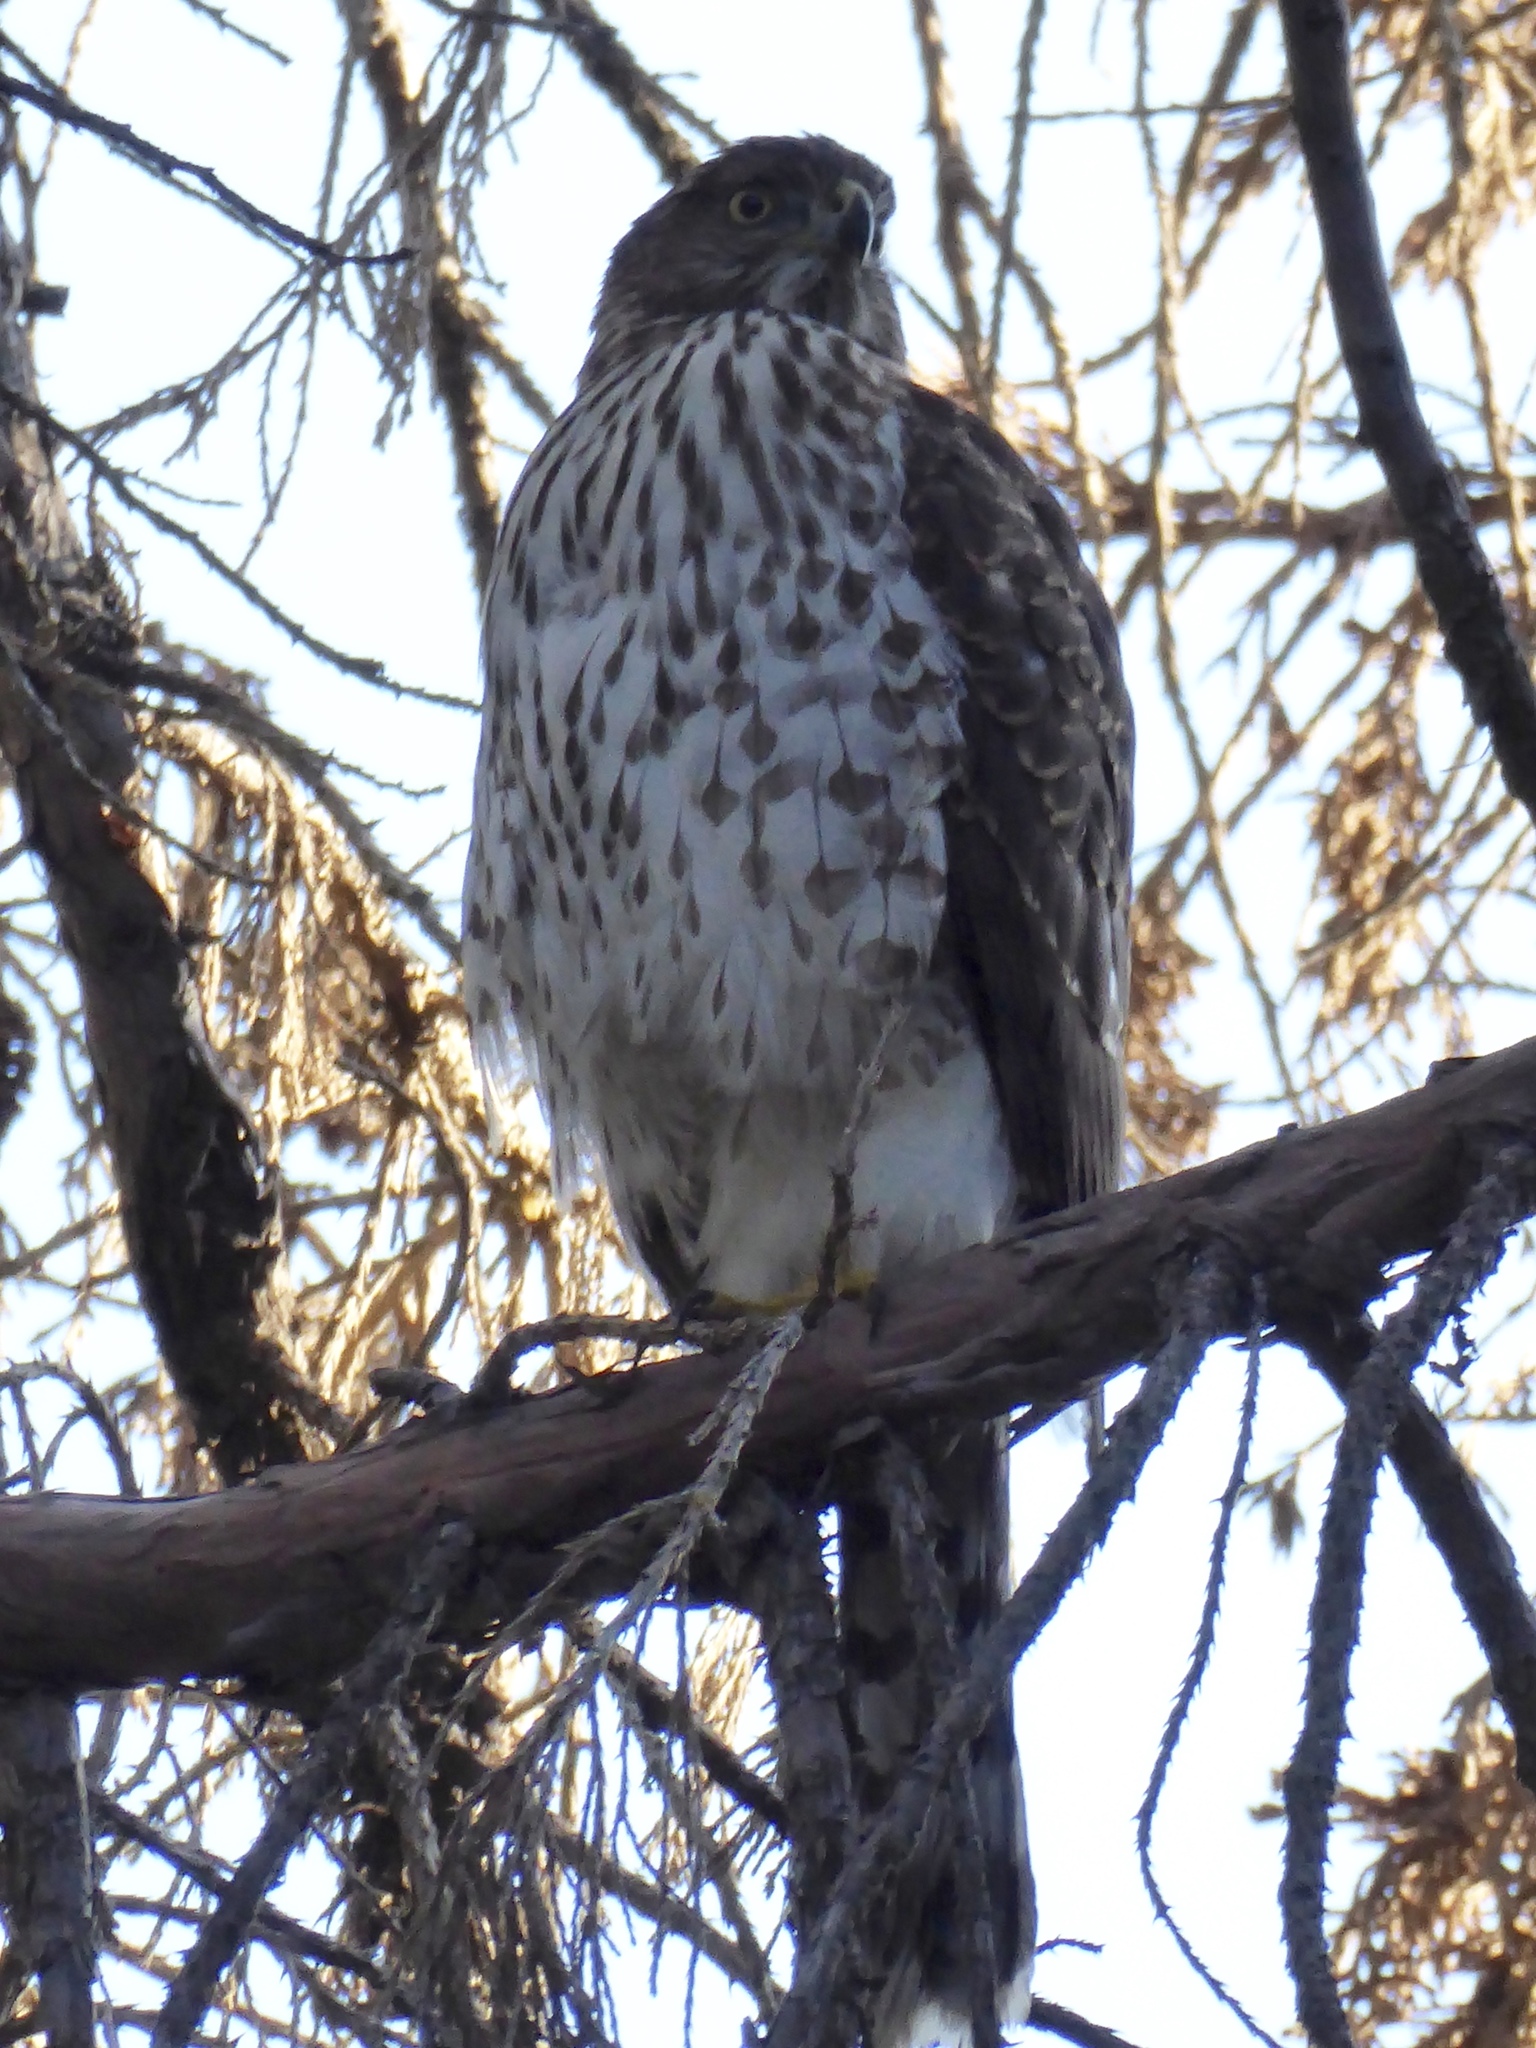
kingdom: Animalia
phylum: Chordata
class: Aves
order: Accipitriformes
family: Accipitridae
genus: Accipiter
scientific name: Accipiter cooperii
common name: Cooper's hawk
